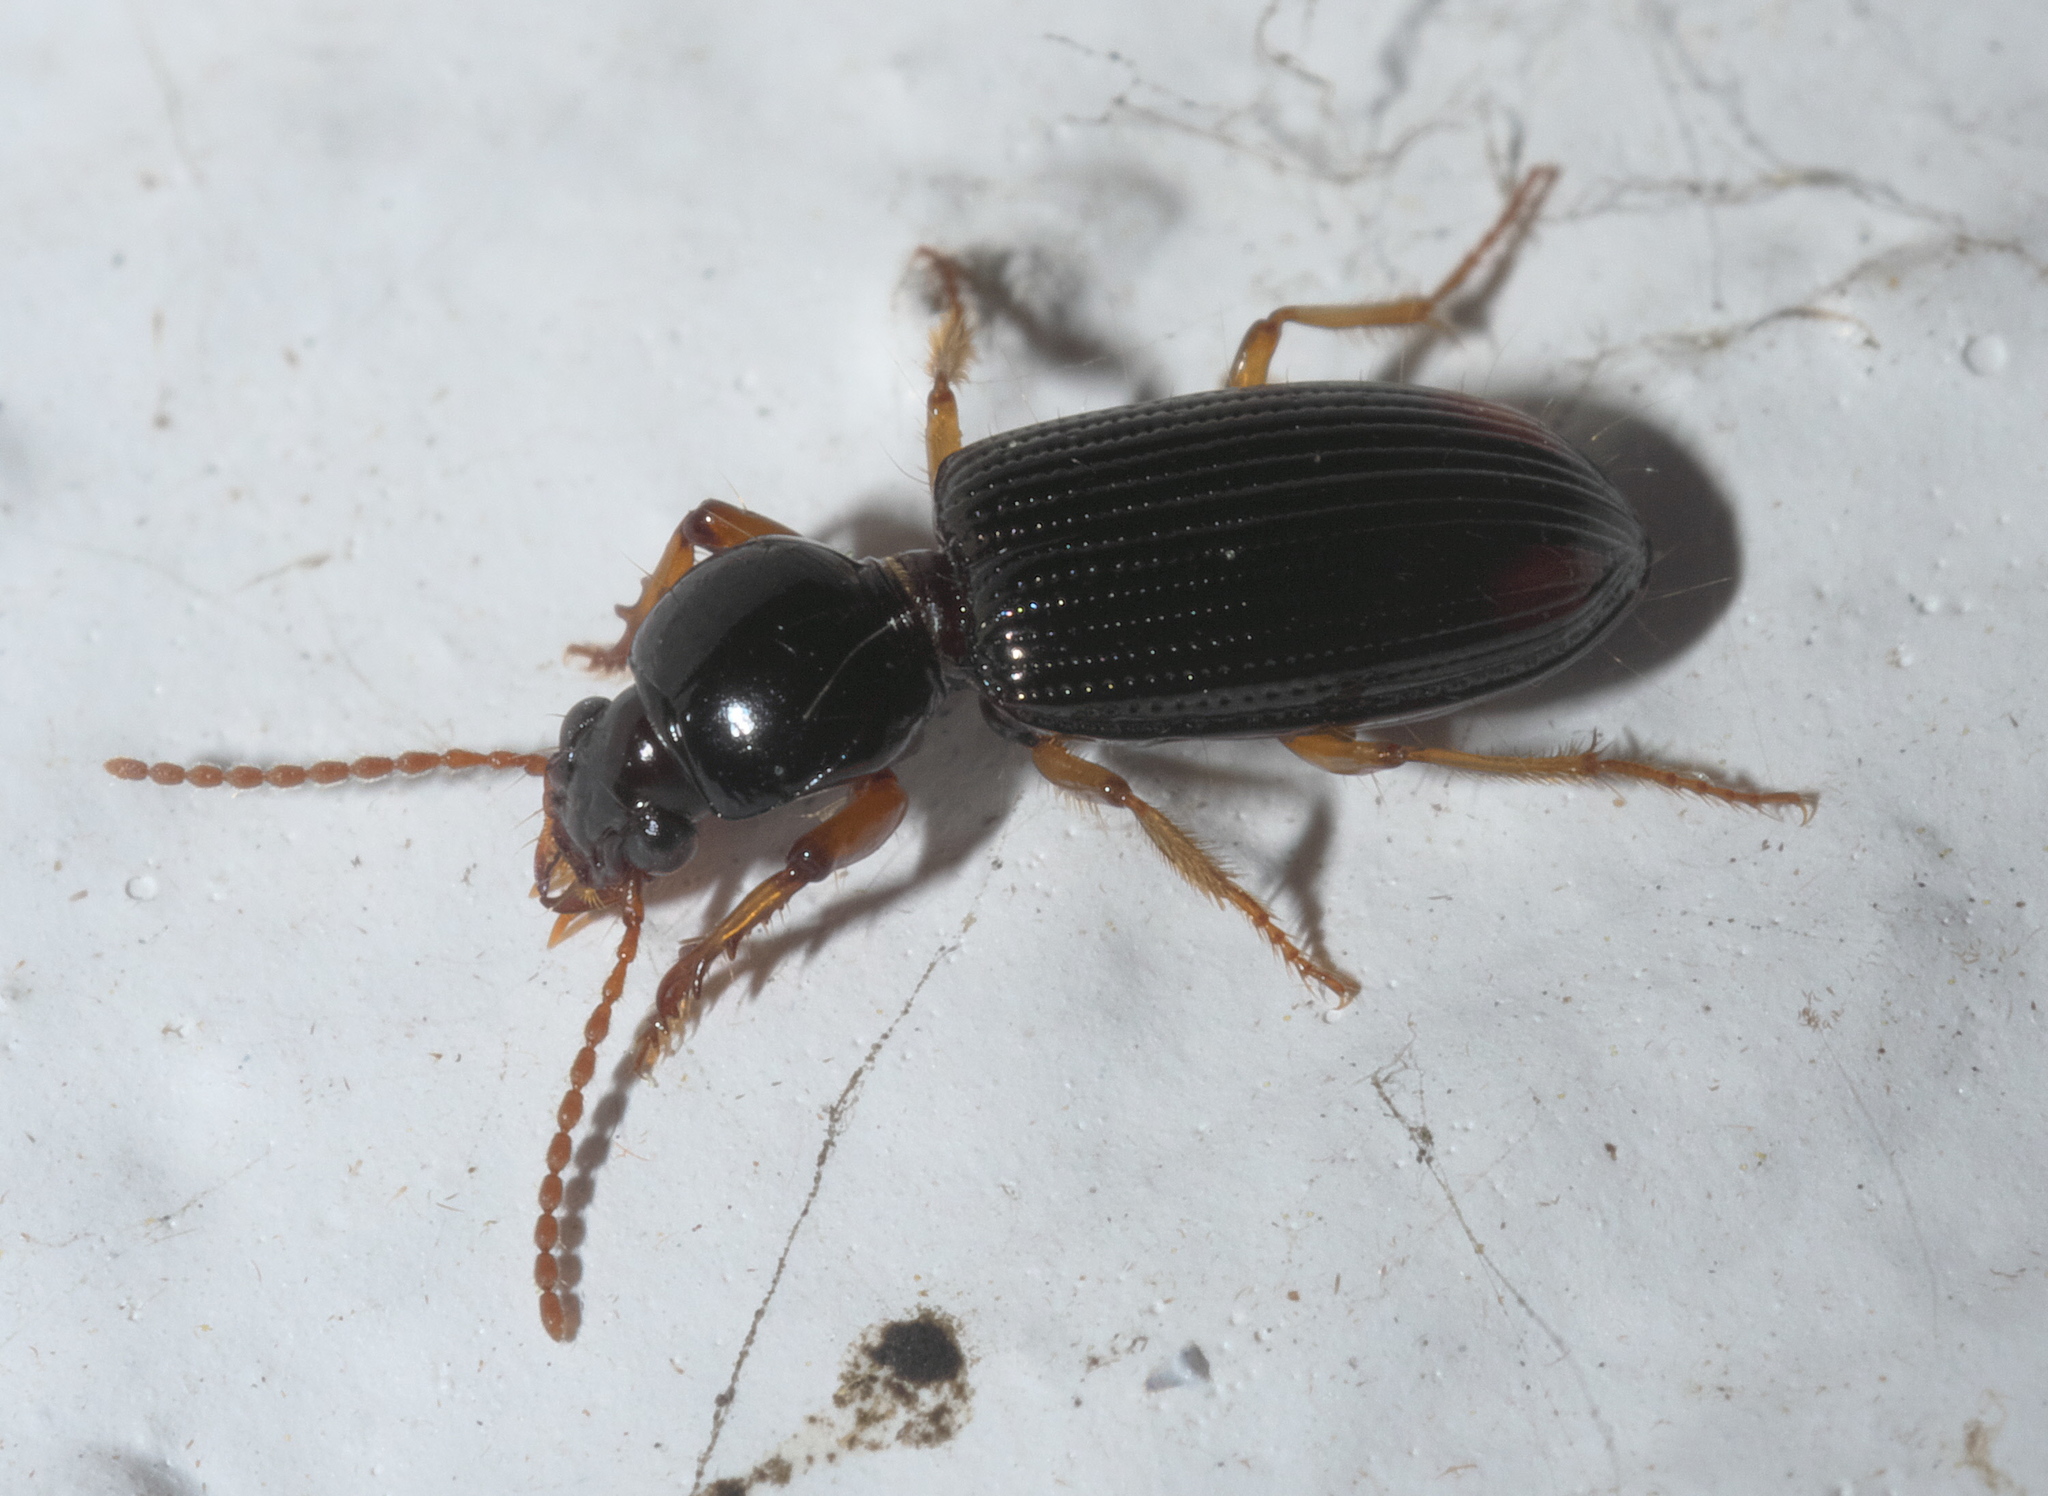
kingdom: Animalia
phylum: Arthropoda
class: Insecta
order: Coleoptera
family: Carabidae
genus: Aspidoglossa
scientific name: Aspidoglossa subangulata
